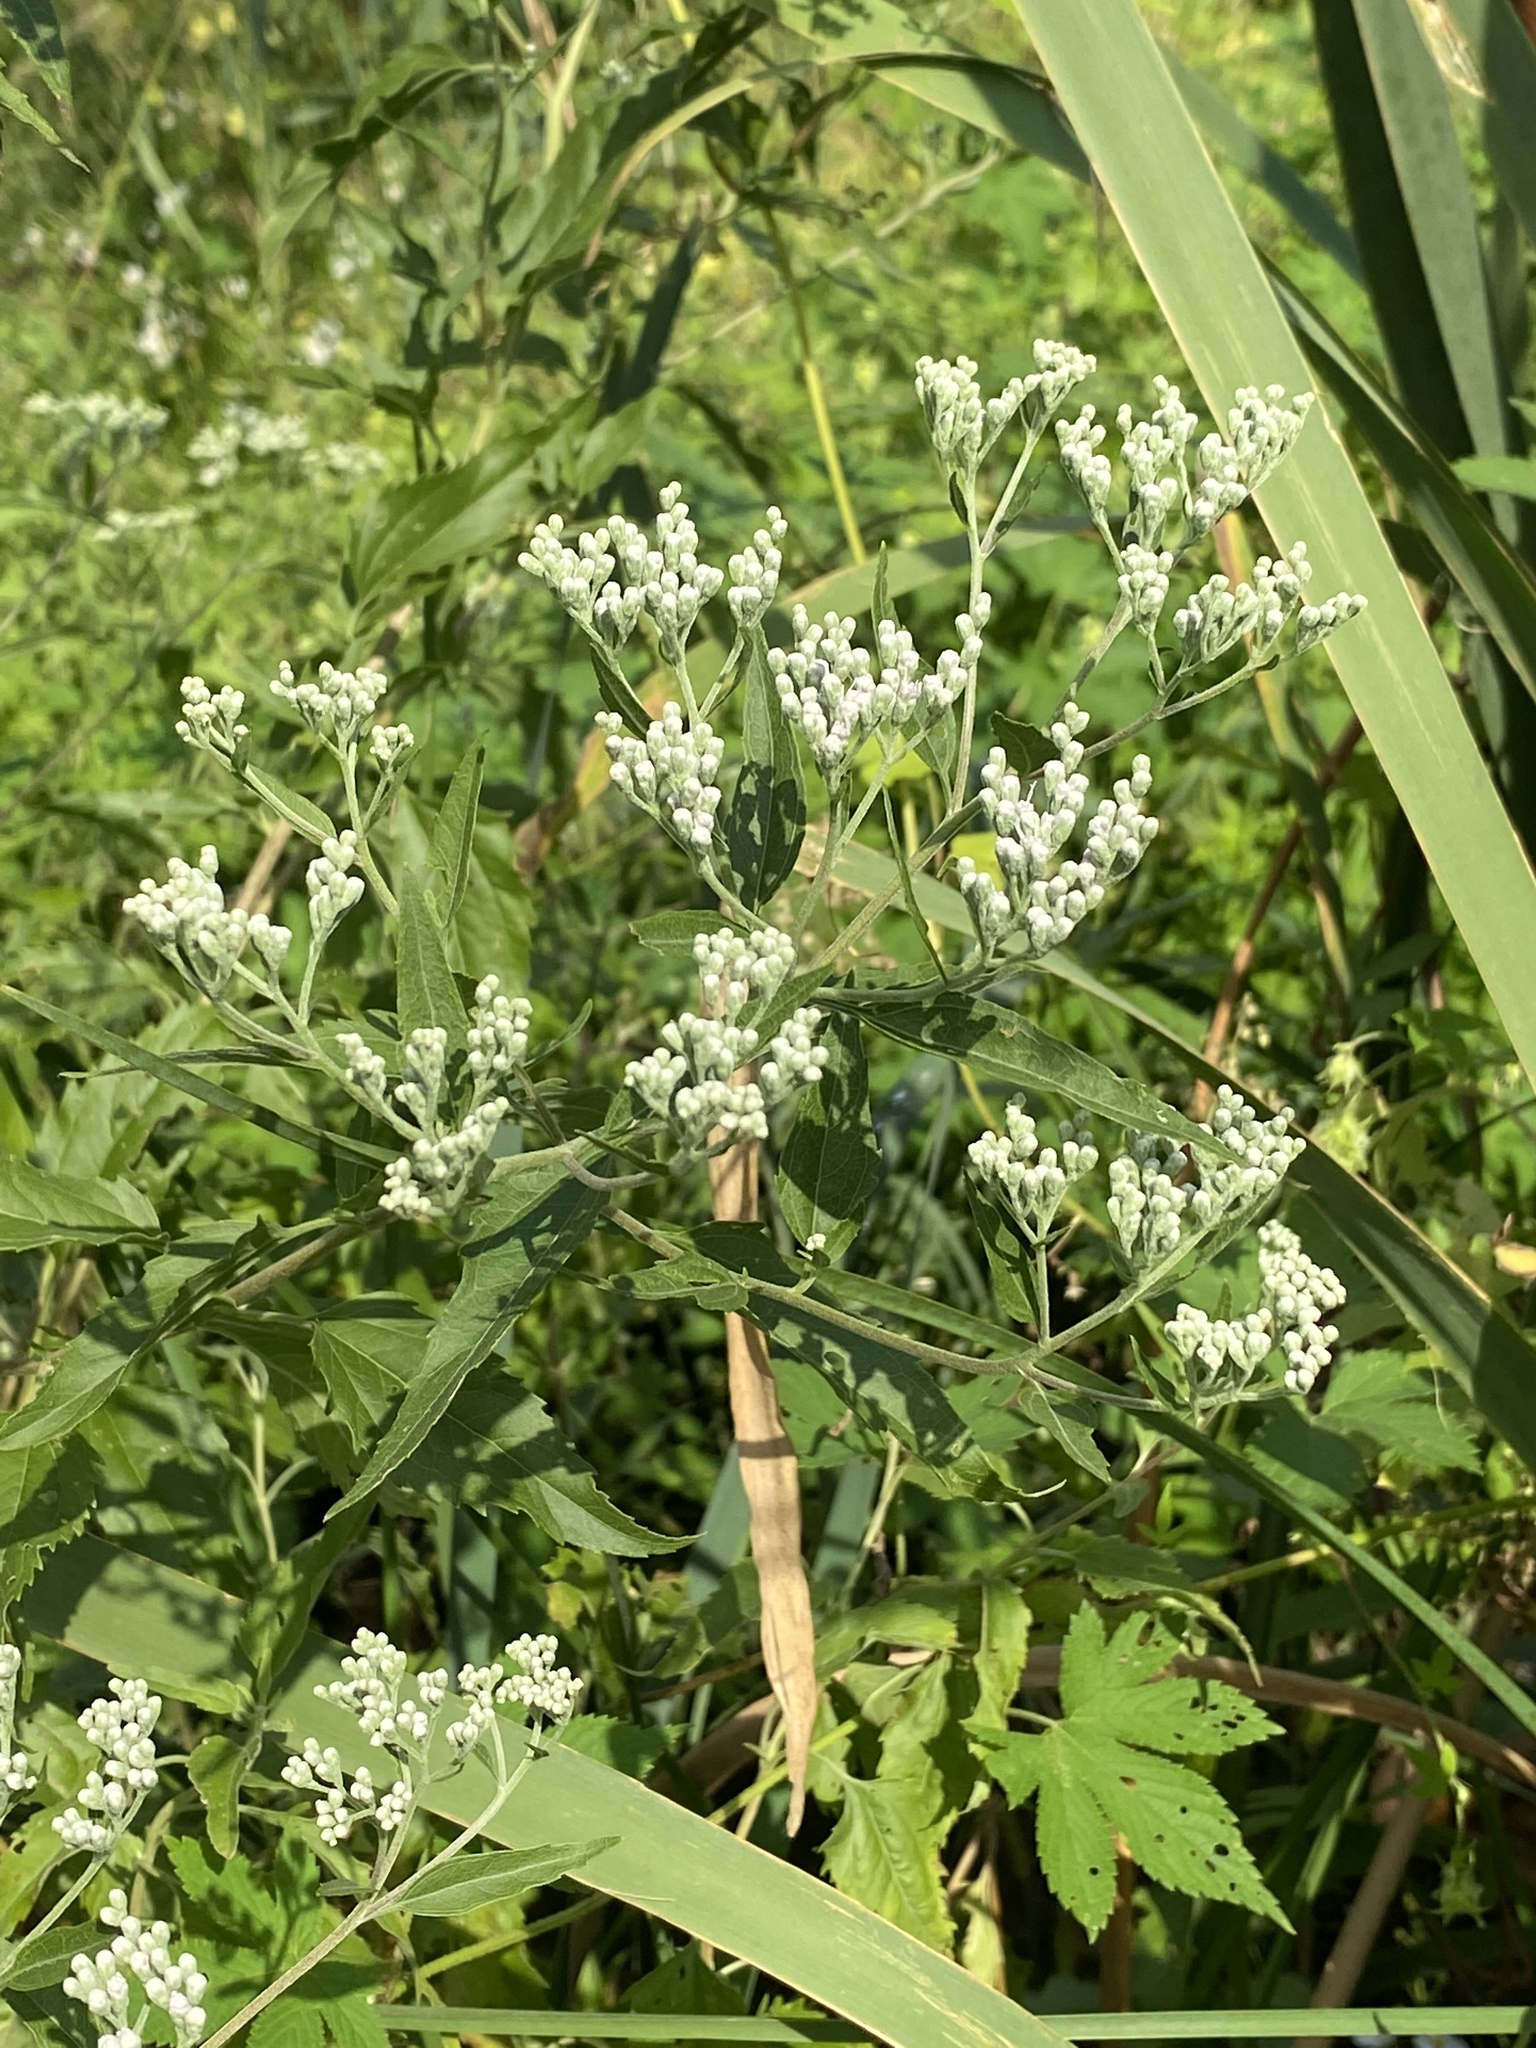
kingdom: Plantae
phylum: Tracheophyta
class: Magnoliopsida
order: Asterales
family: Asteraceae
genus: Eupatorium
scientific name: Eupatorium serotinum
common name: Late boneset
